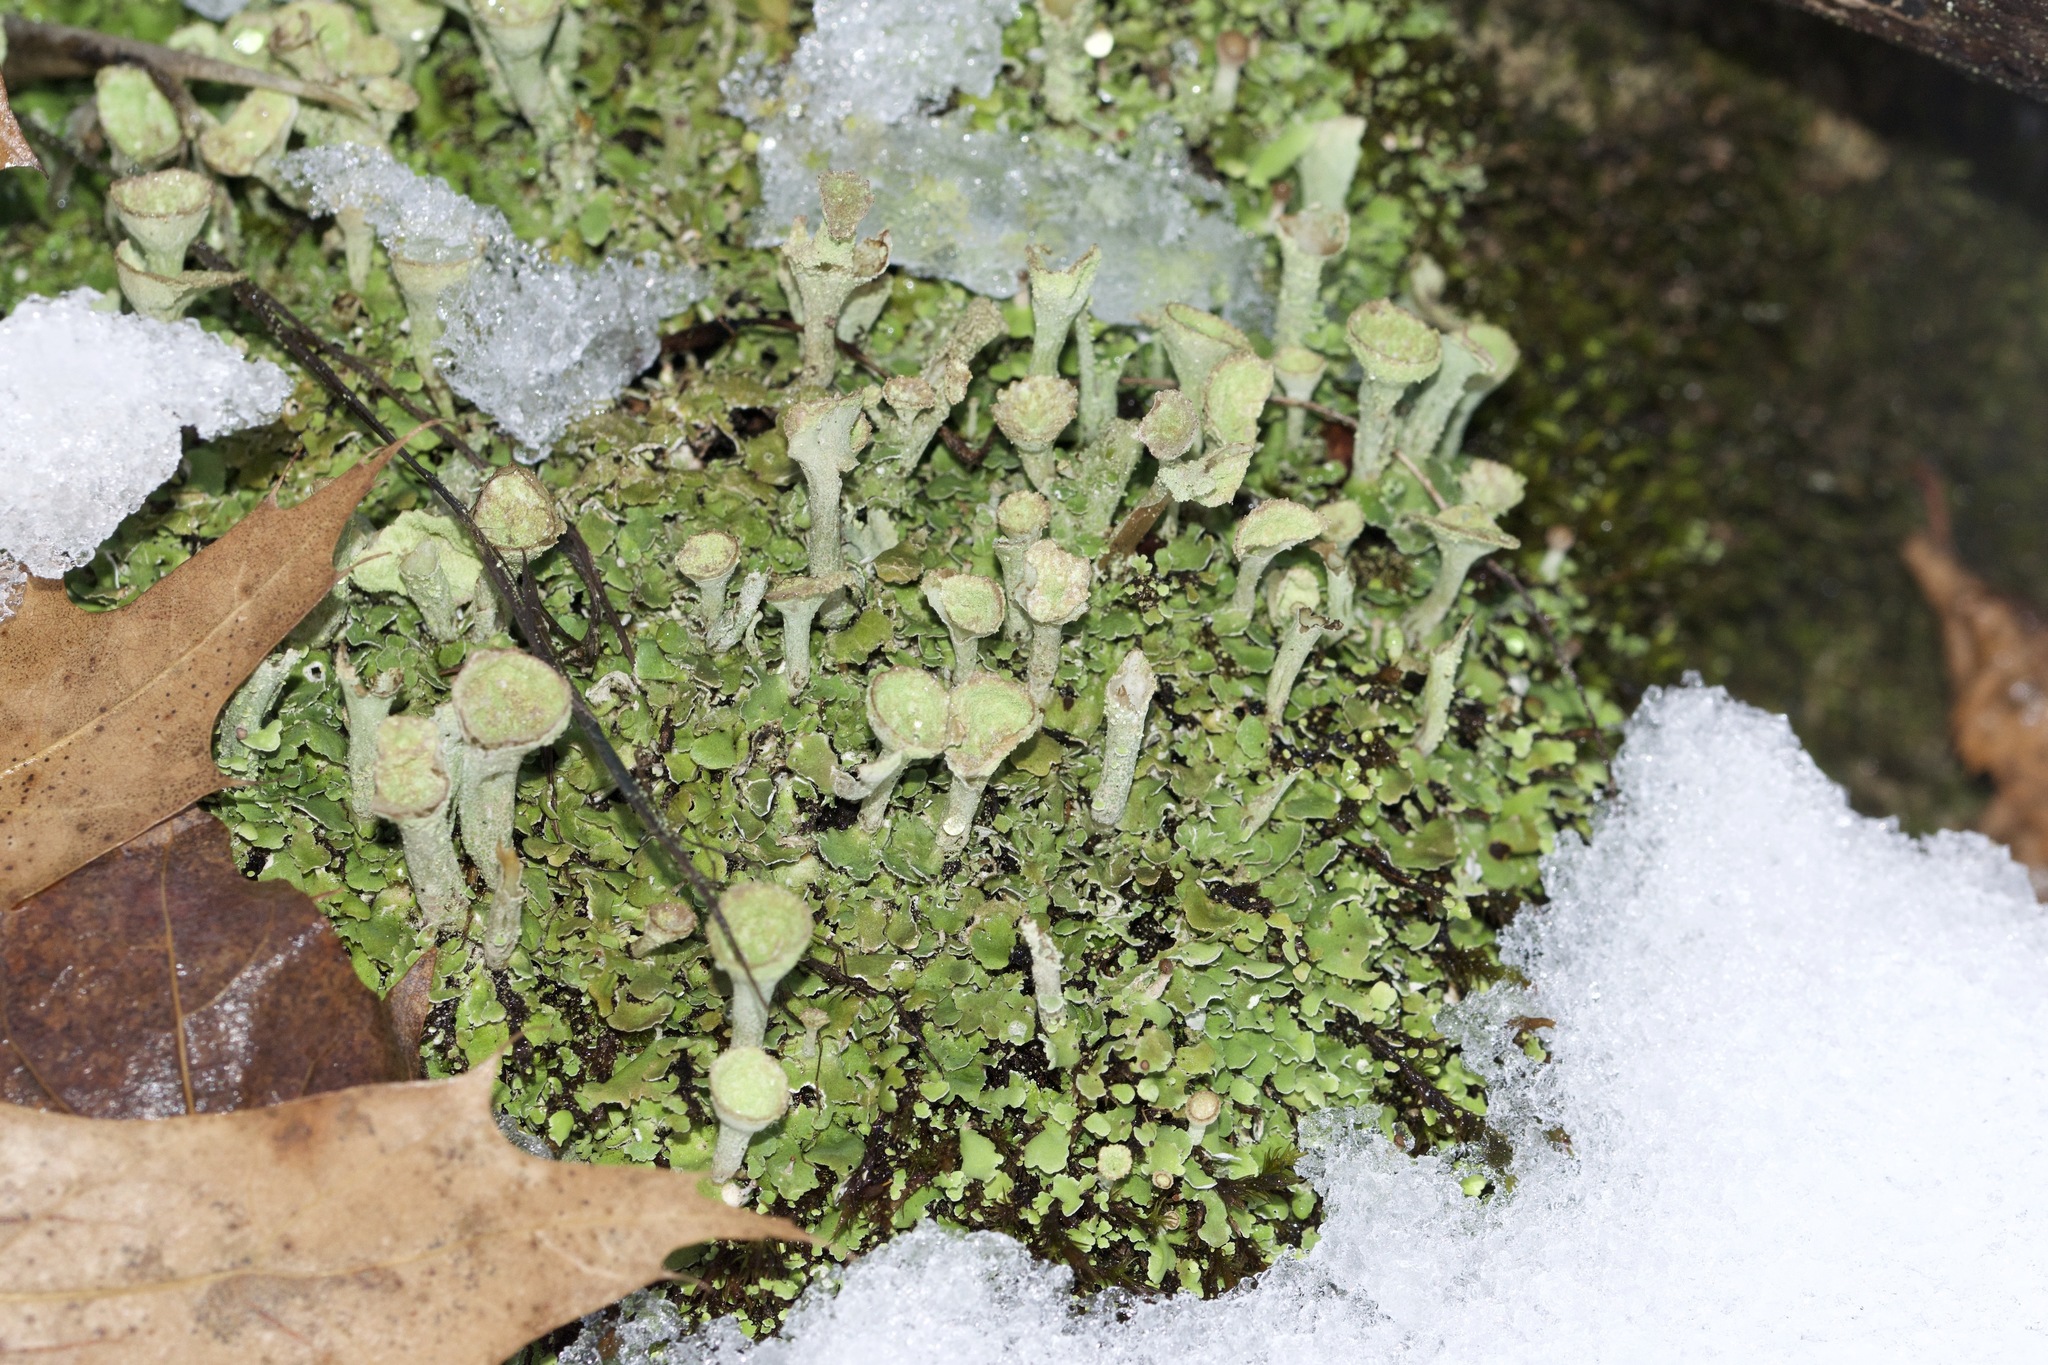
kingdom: Fungi
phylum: Ascomycota
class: Lecanoromycetes
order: Lecanorales
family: Cladoniaceae
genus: Cladonia
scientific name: Cladonia fimbriata
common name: Powdered trumpet lichen
